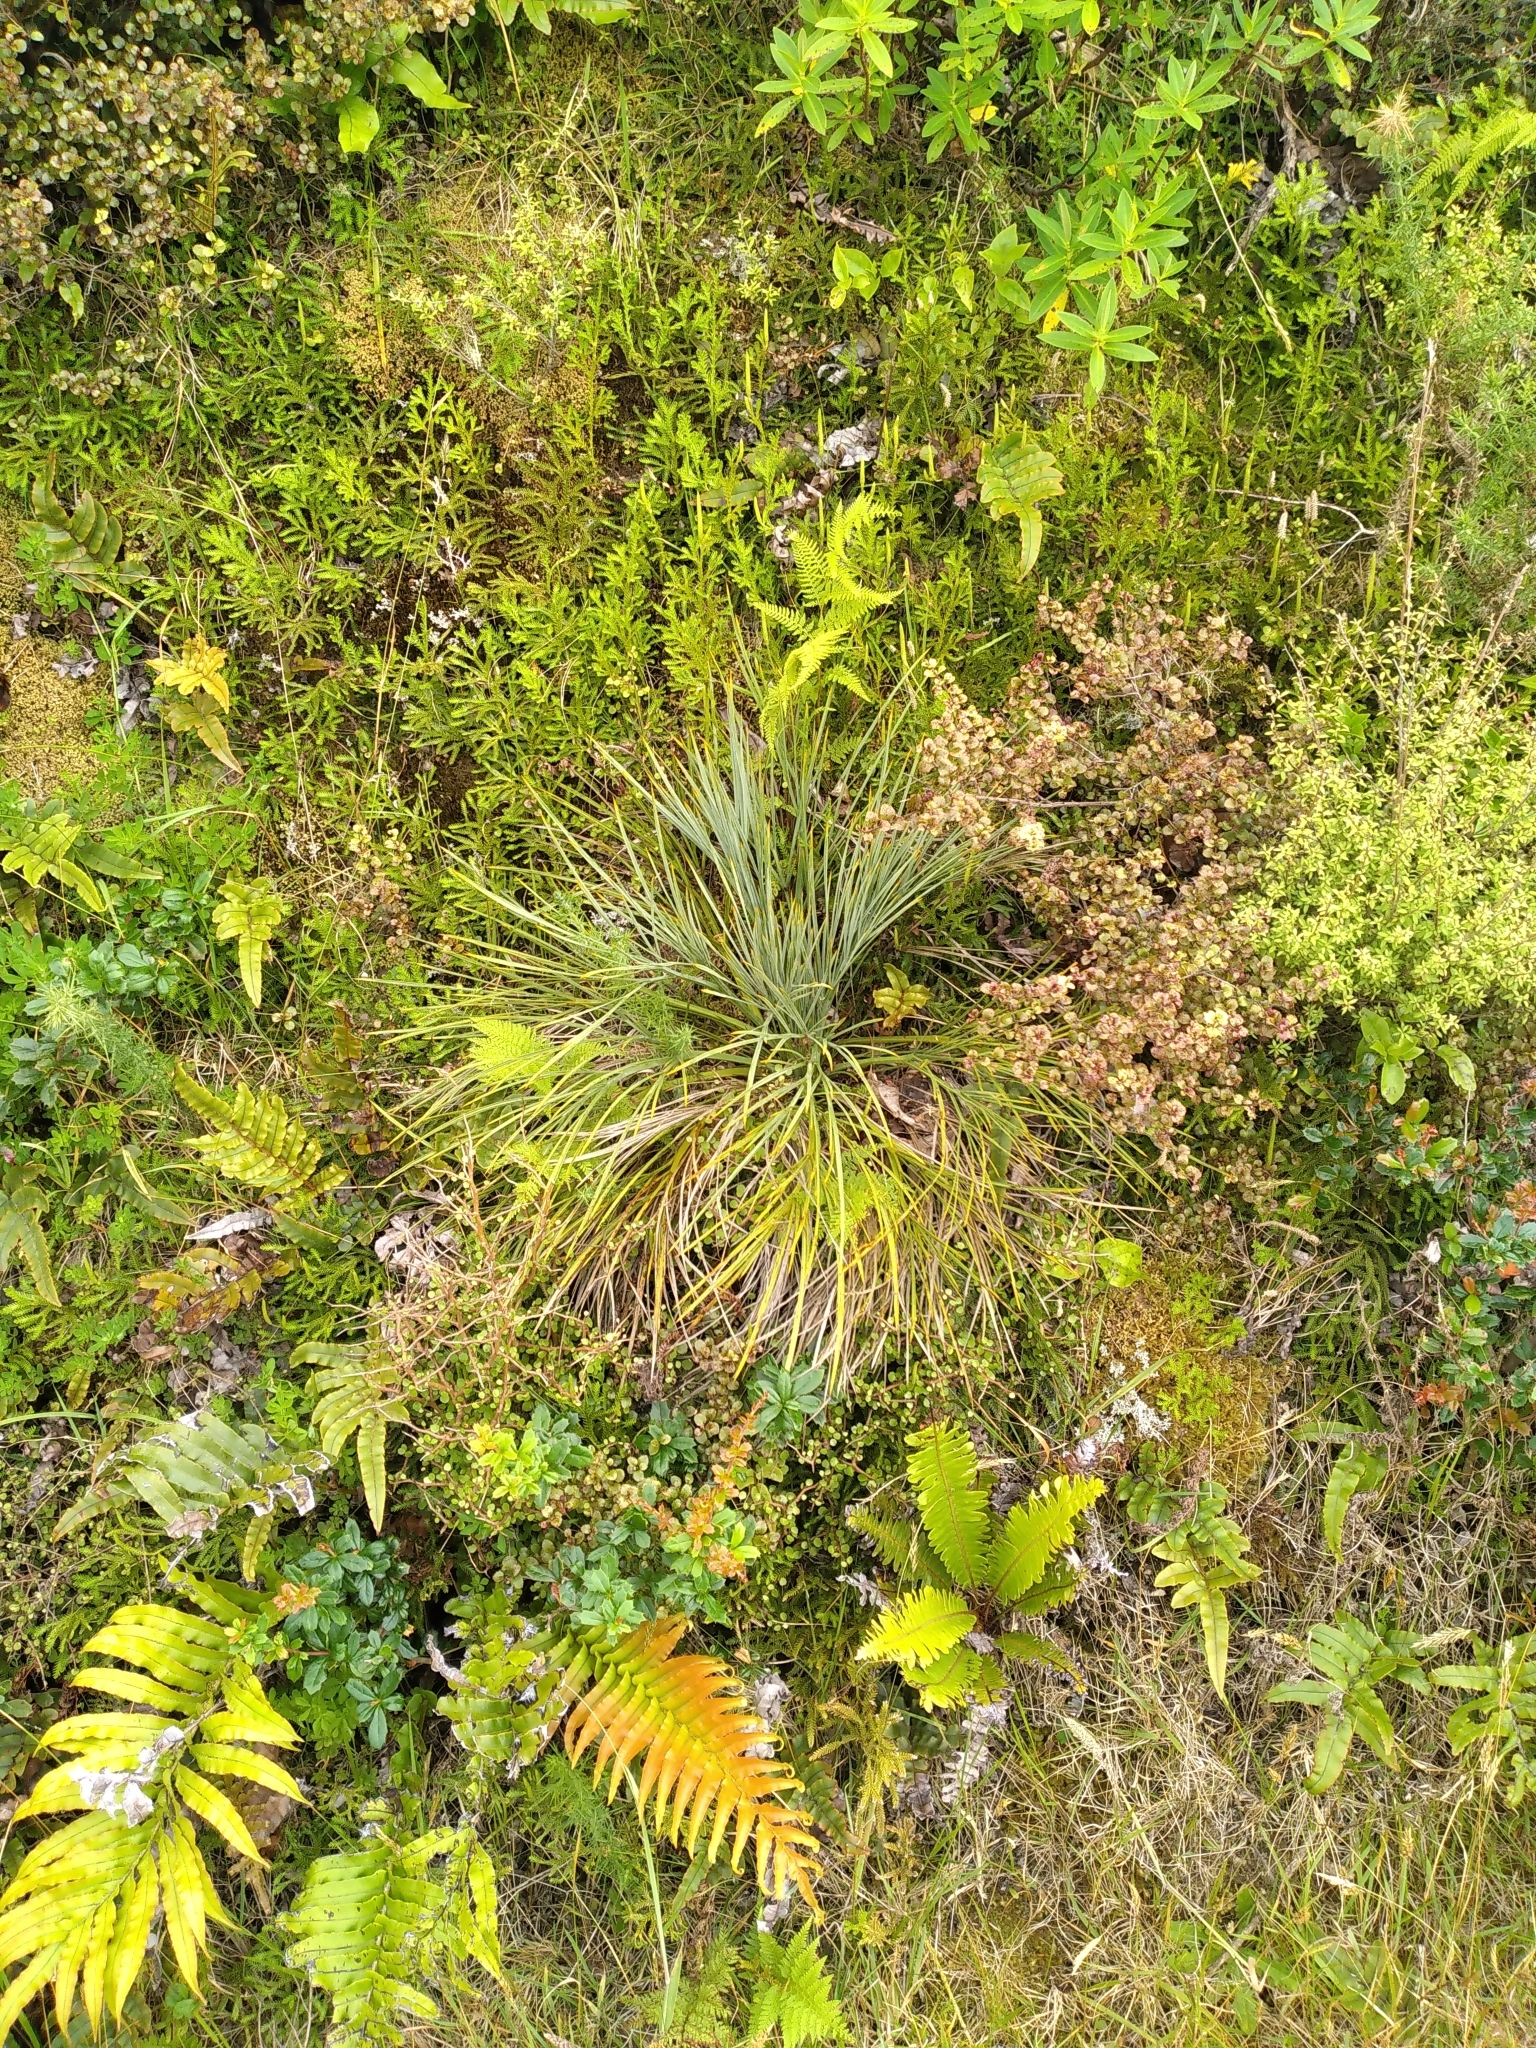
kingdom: Plantae
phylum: Tracheophyta
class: Magnoliopsida
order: Apiales
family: Apiaceae
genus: Aciphylla
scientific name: Aciphylla squarrosa
